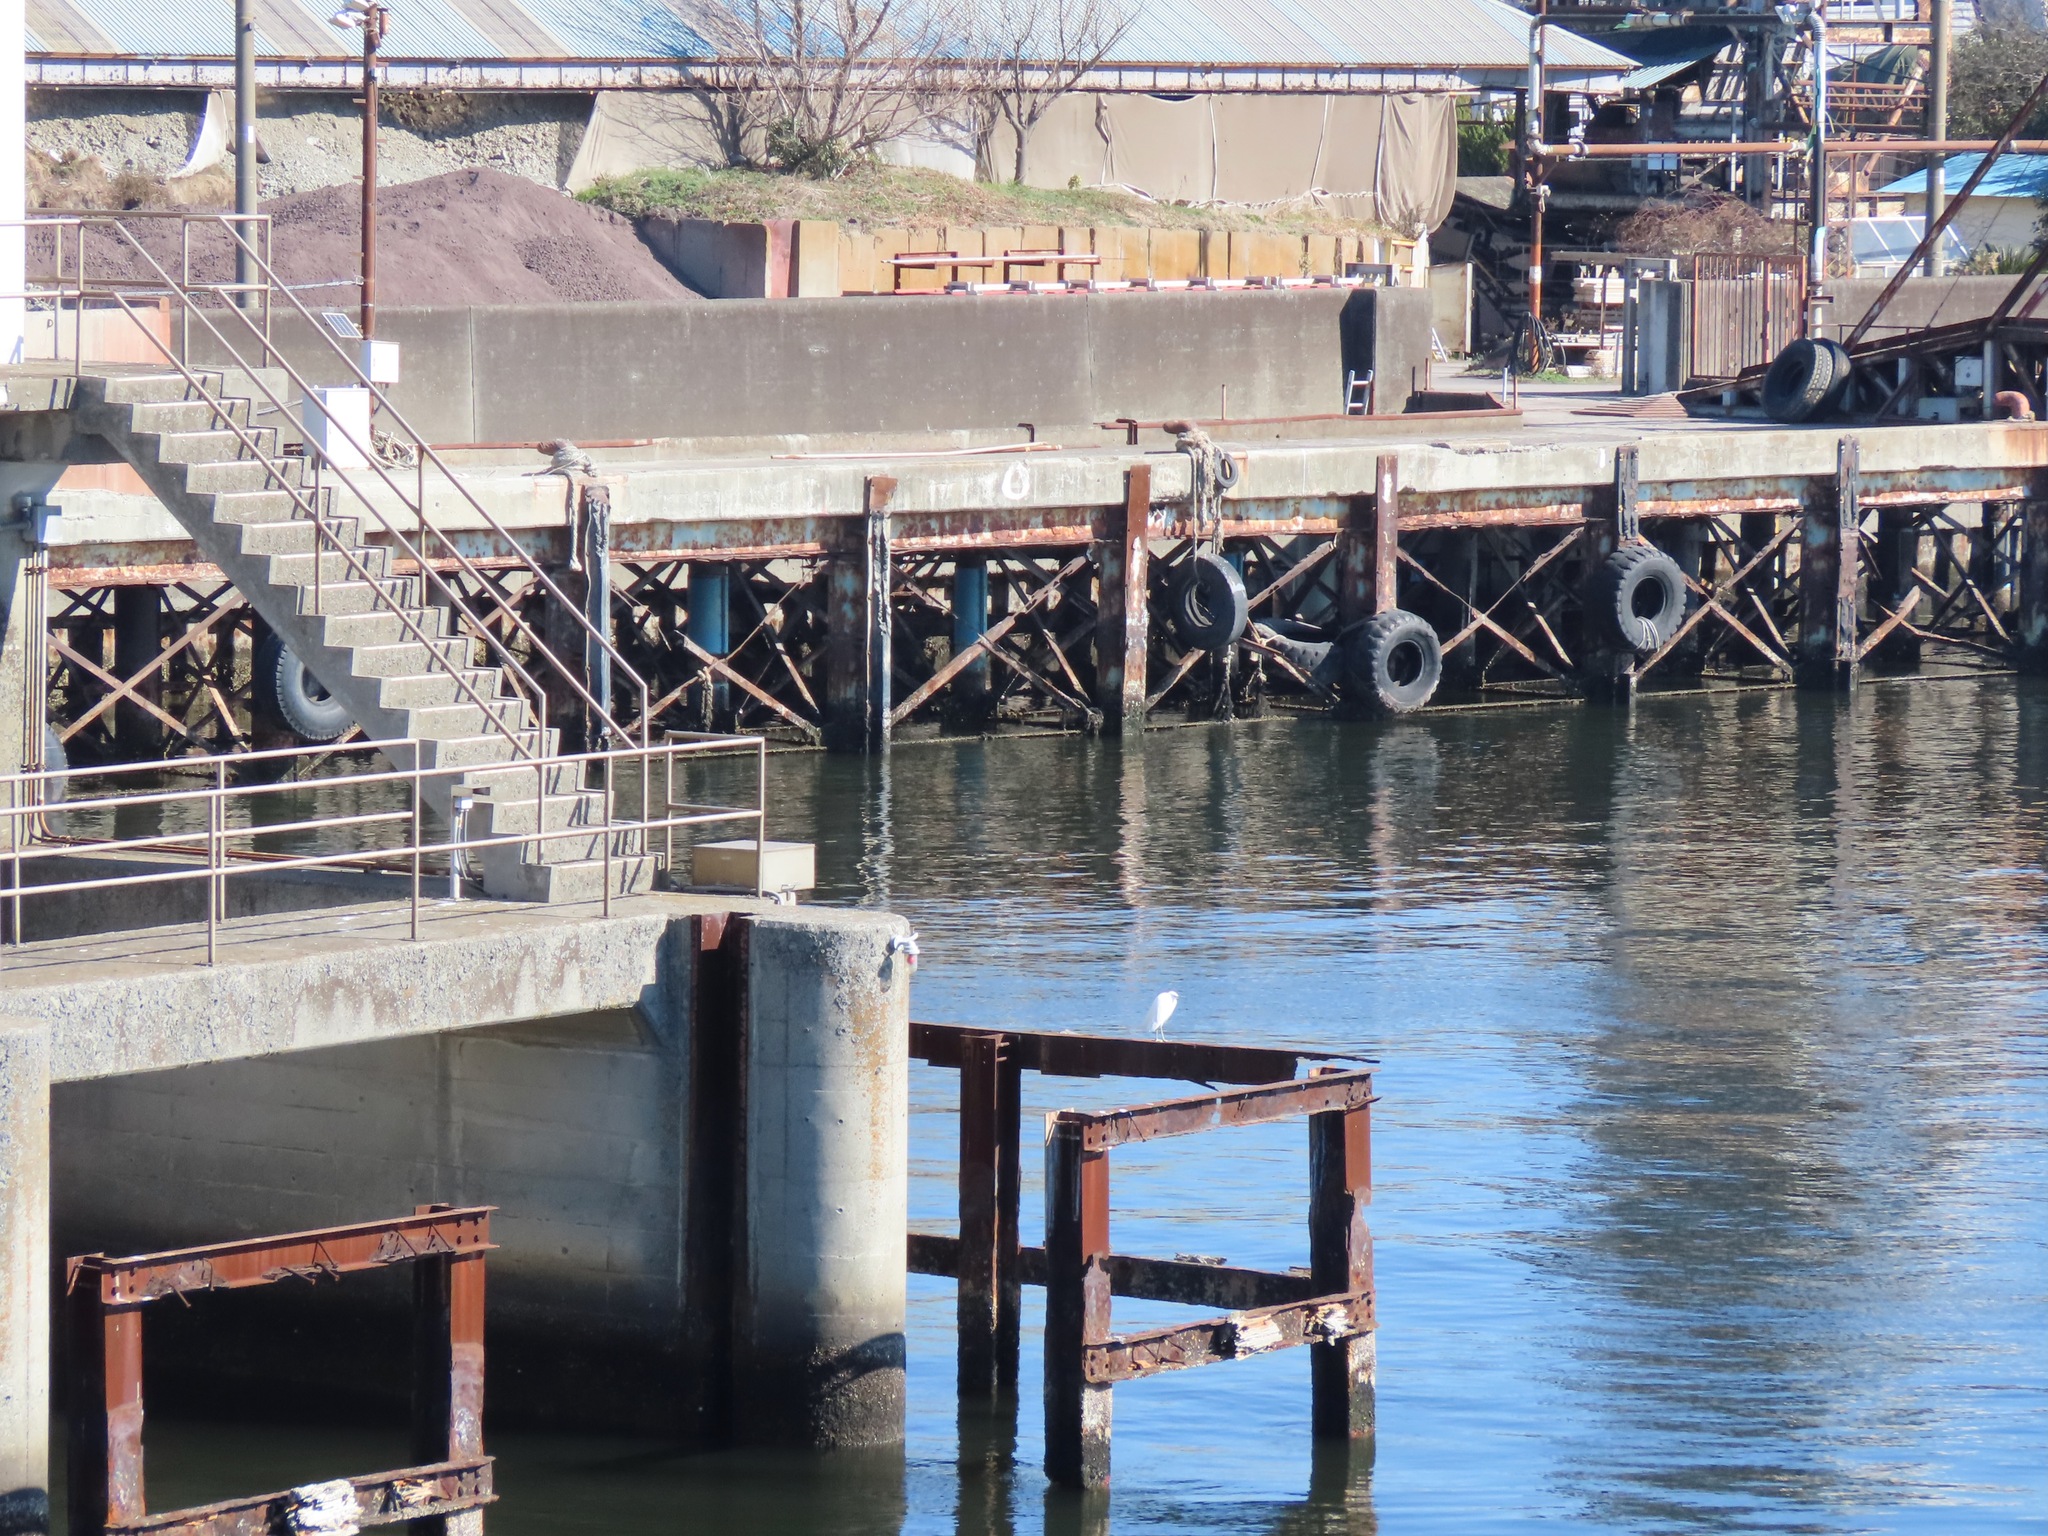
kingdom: Animalia
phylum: Chordata
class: Aves
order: Pelecaniformes
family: Ardeidae
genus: Egretta
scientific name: Egretta garzetta
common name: Little egret
